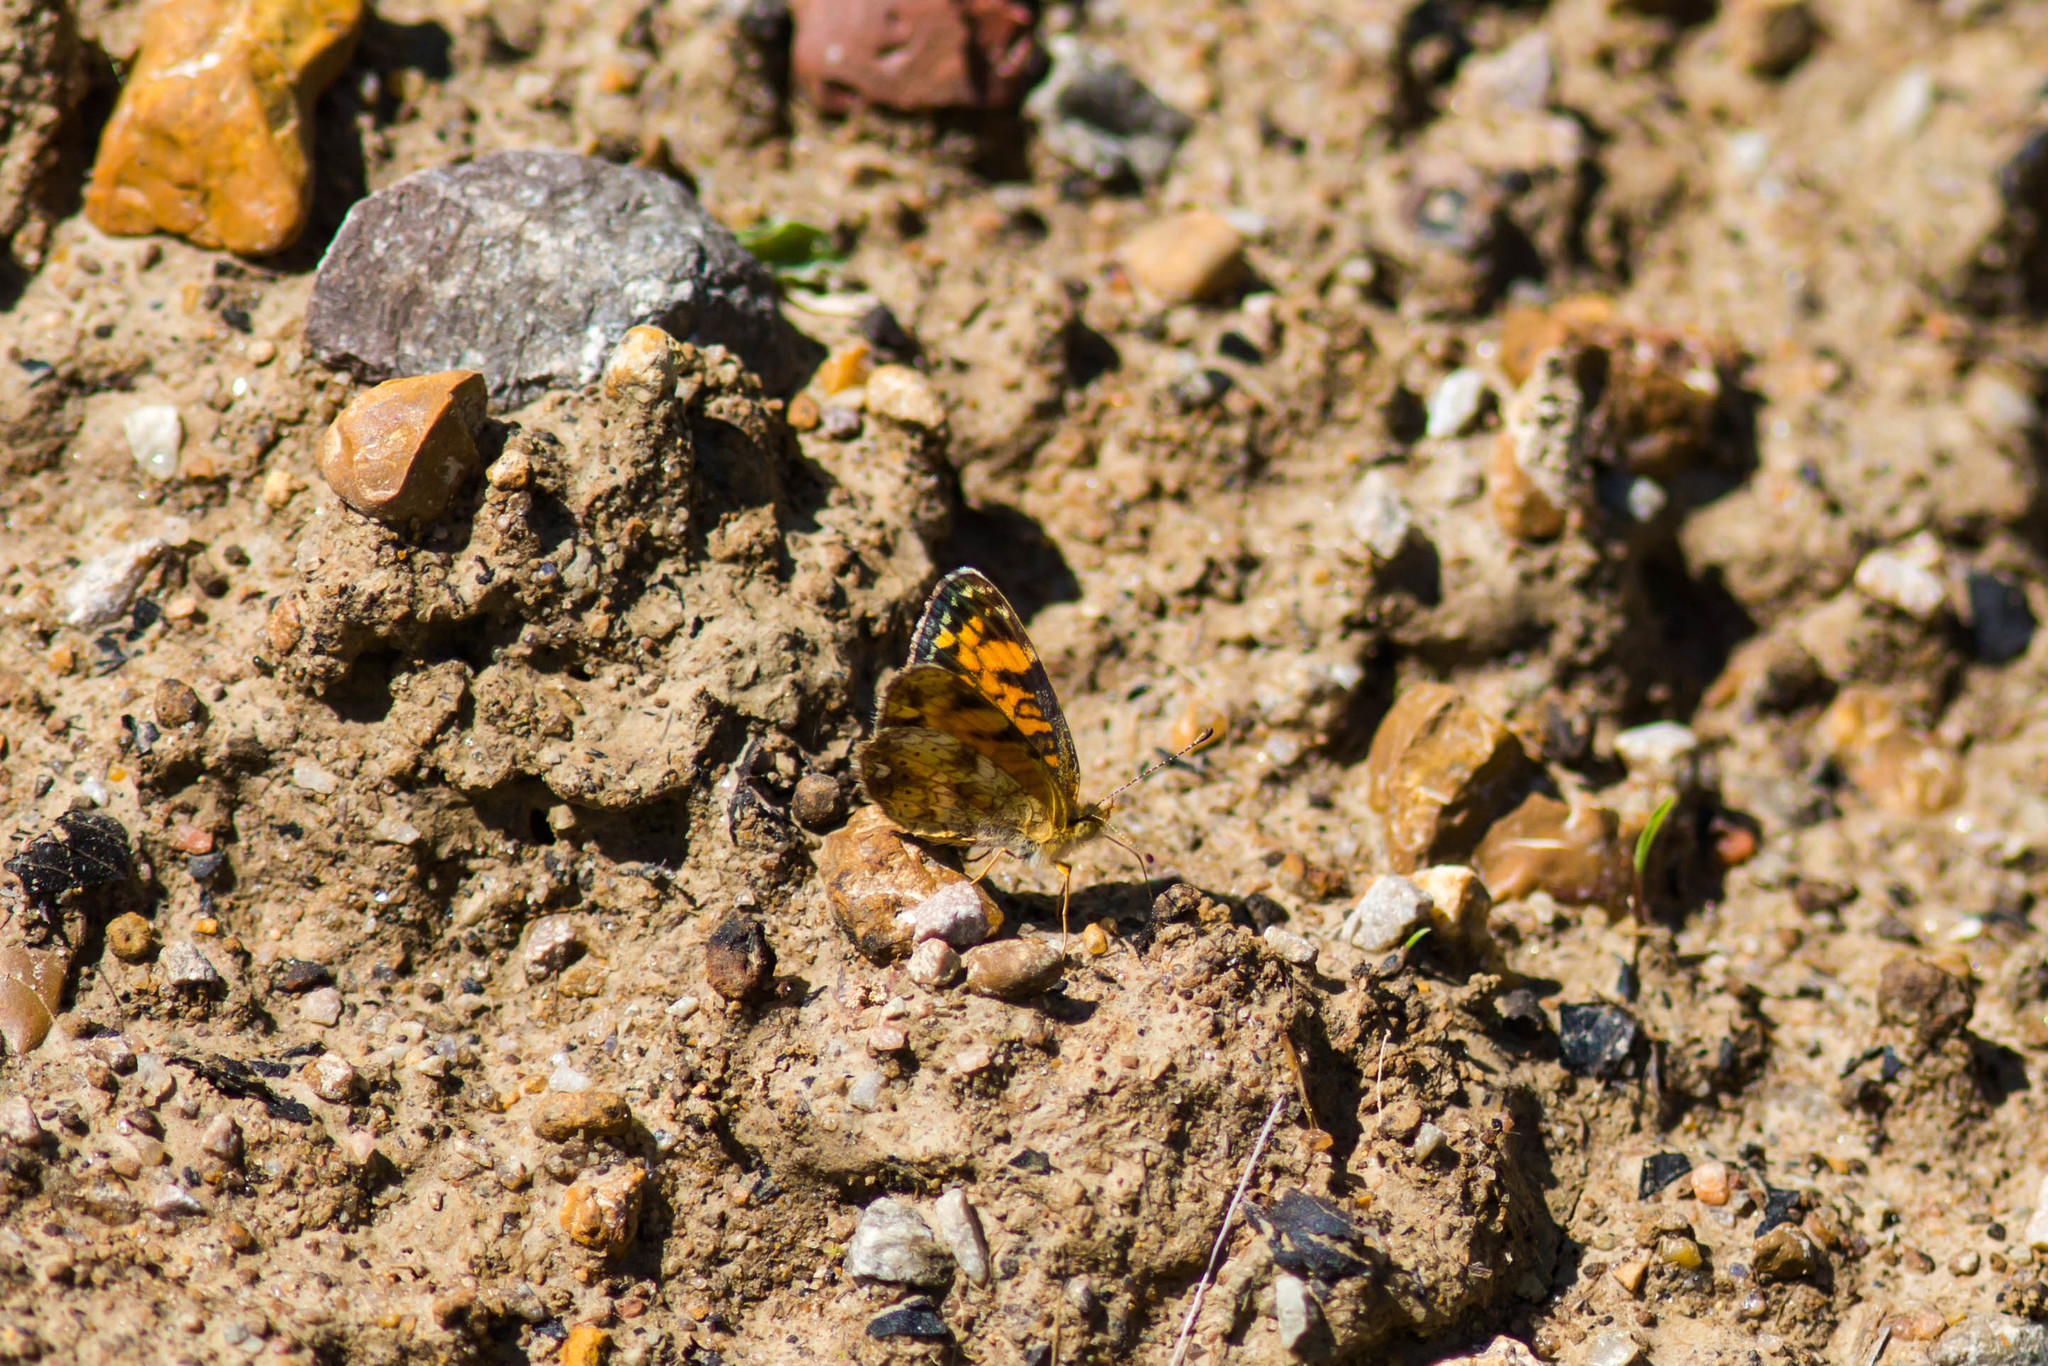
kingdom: Animalia
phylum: Arthropoda
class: Insecta
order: Lepidoptera
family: Nymphalidae
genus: Phyciodes
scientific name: Phyciodes tharos
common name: Pearl crescent
